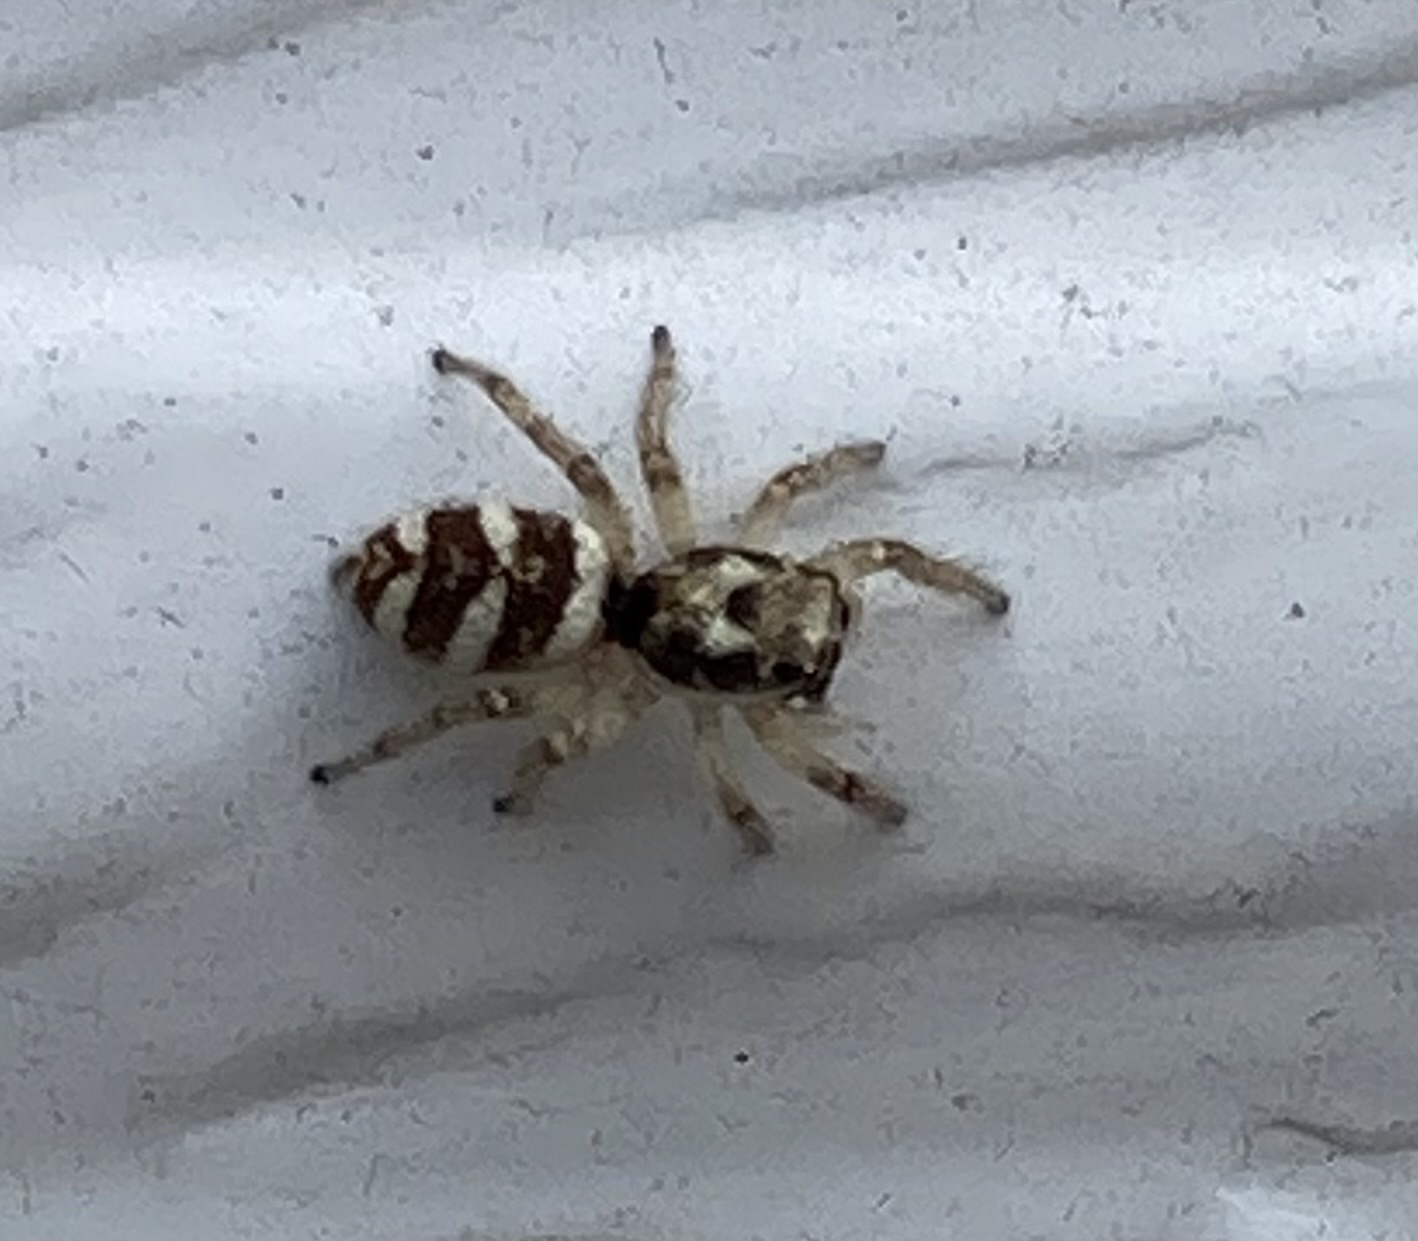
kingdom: Animalia
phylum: Arthropoda
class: Arachnida
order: Araneae
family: Salticidae
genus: Salticus
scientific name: Salticus scenicus
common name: Zebra jumper
